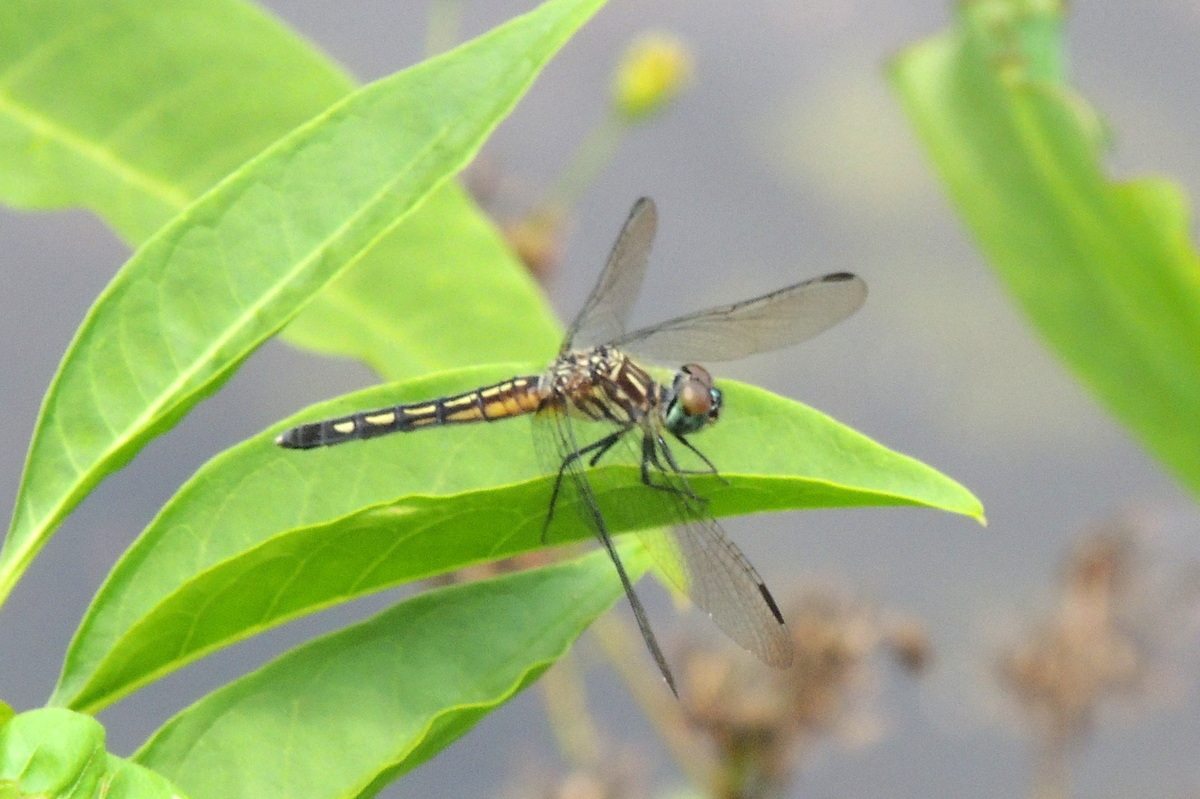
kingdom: Animalia
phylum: Arthropoda
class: Insecta
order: Odonata
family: Libellulidae
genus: Pachydiplax
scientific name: Pachydiplax longipennis
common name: Blue dasher
